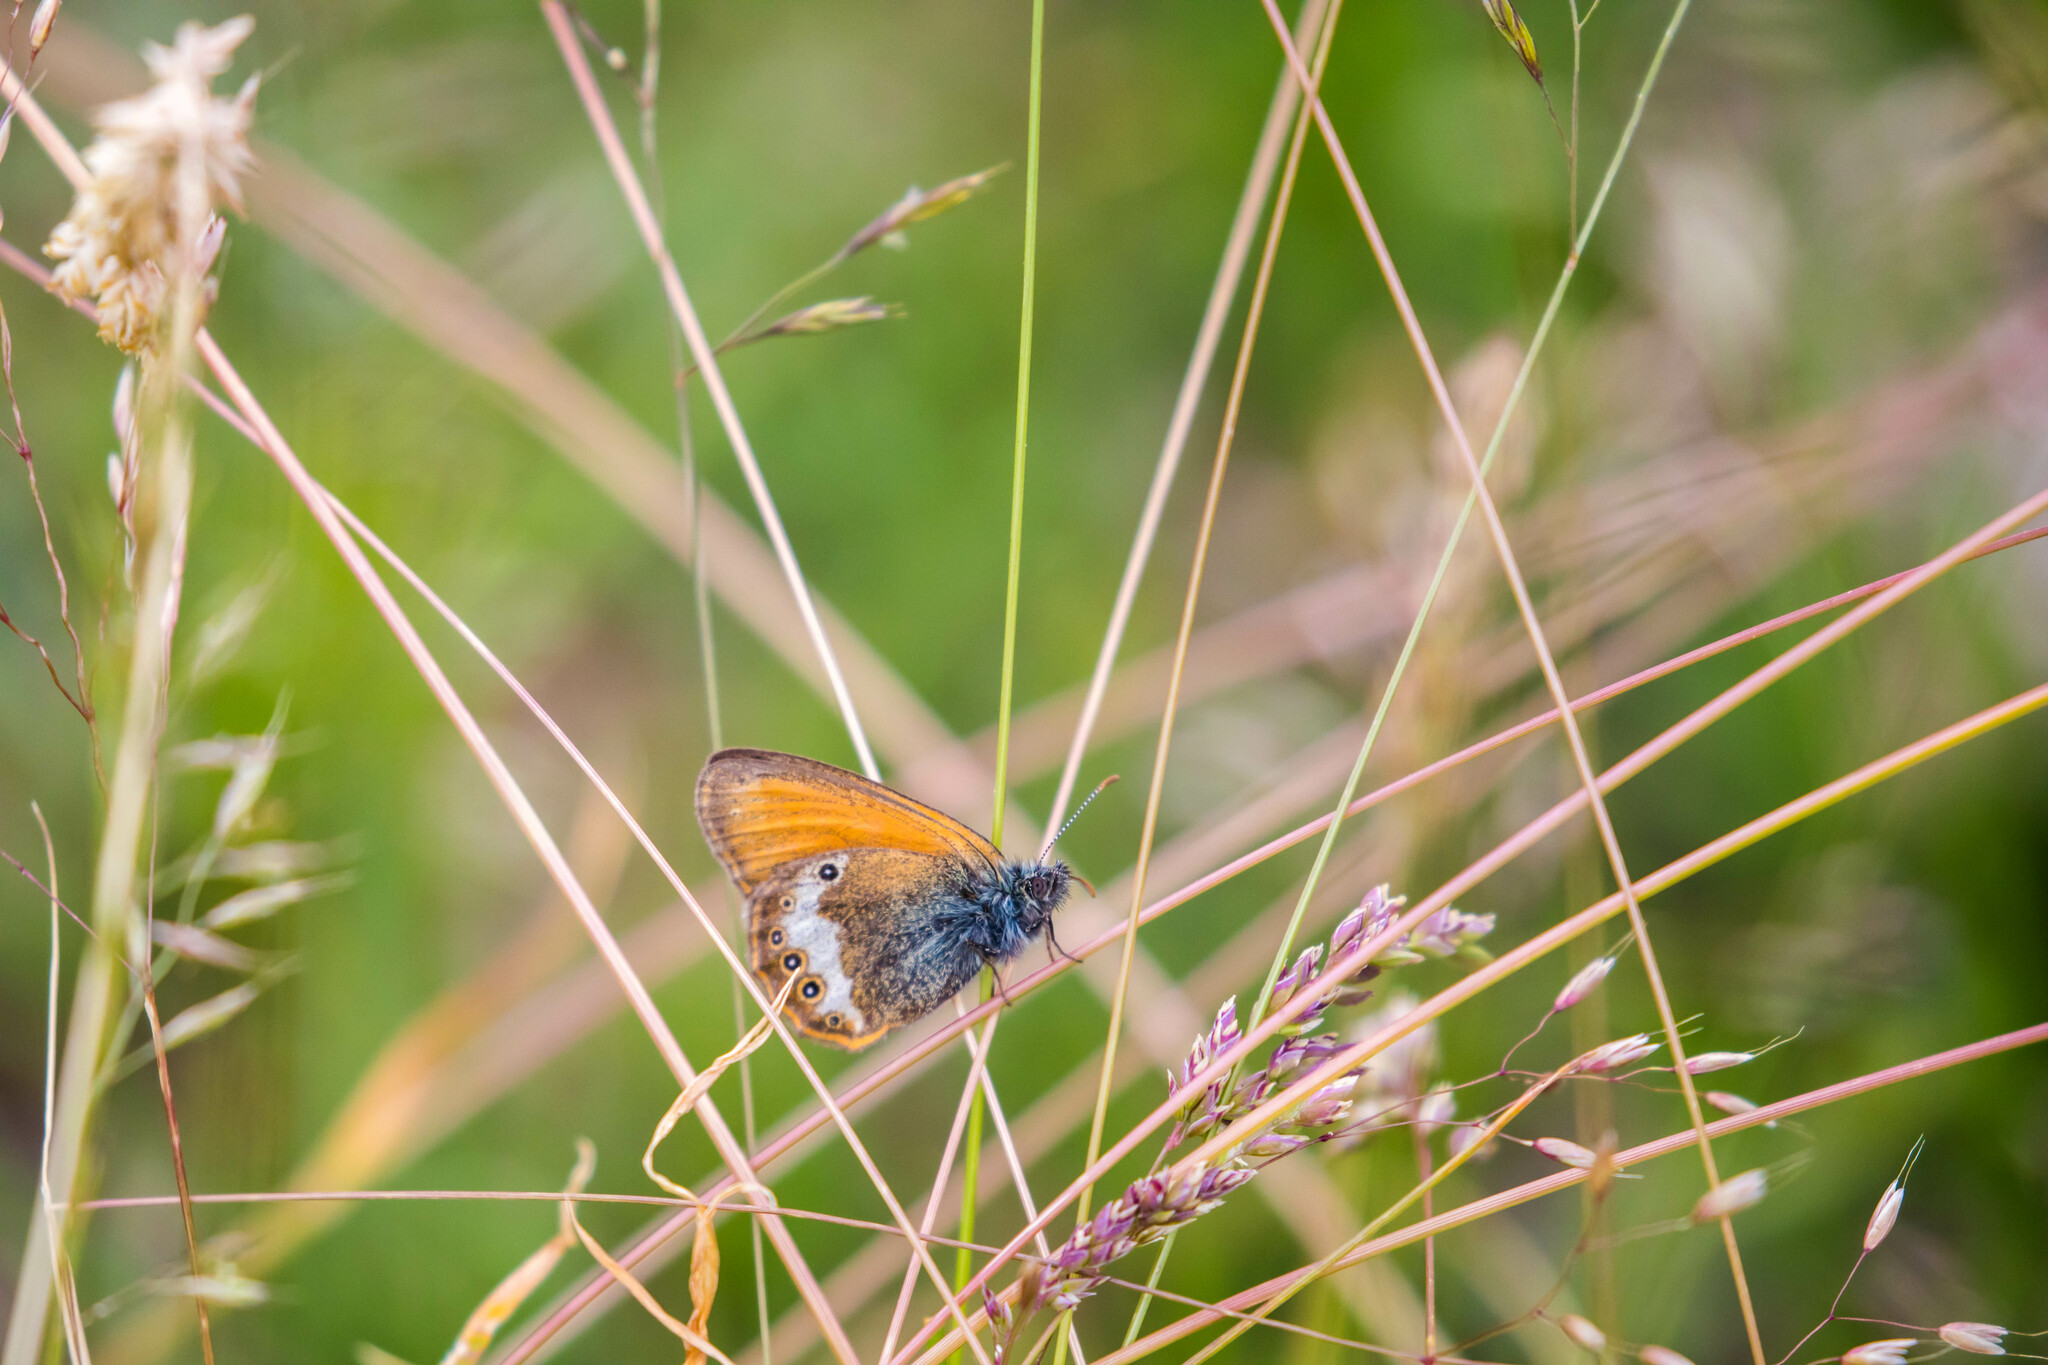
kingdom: Animalia
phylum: Arthropoda
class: Insecta
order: Lepidoptera
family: Nymphalidae
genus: Coenonympha
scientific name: Coenonympha arcania
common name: Pearly heath
